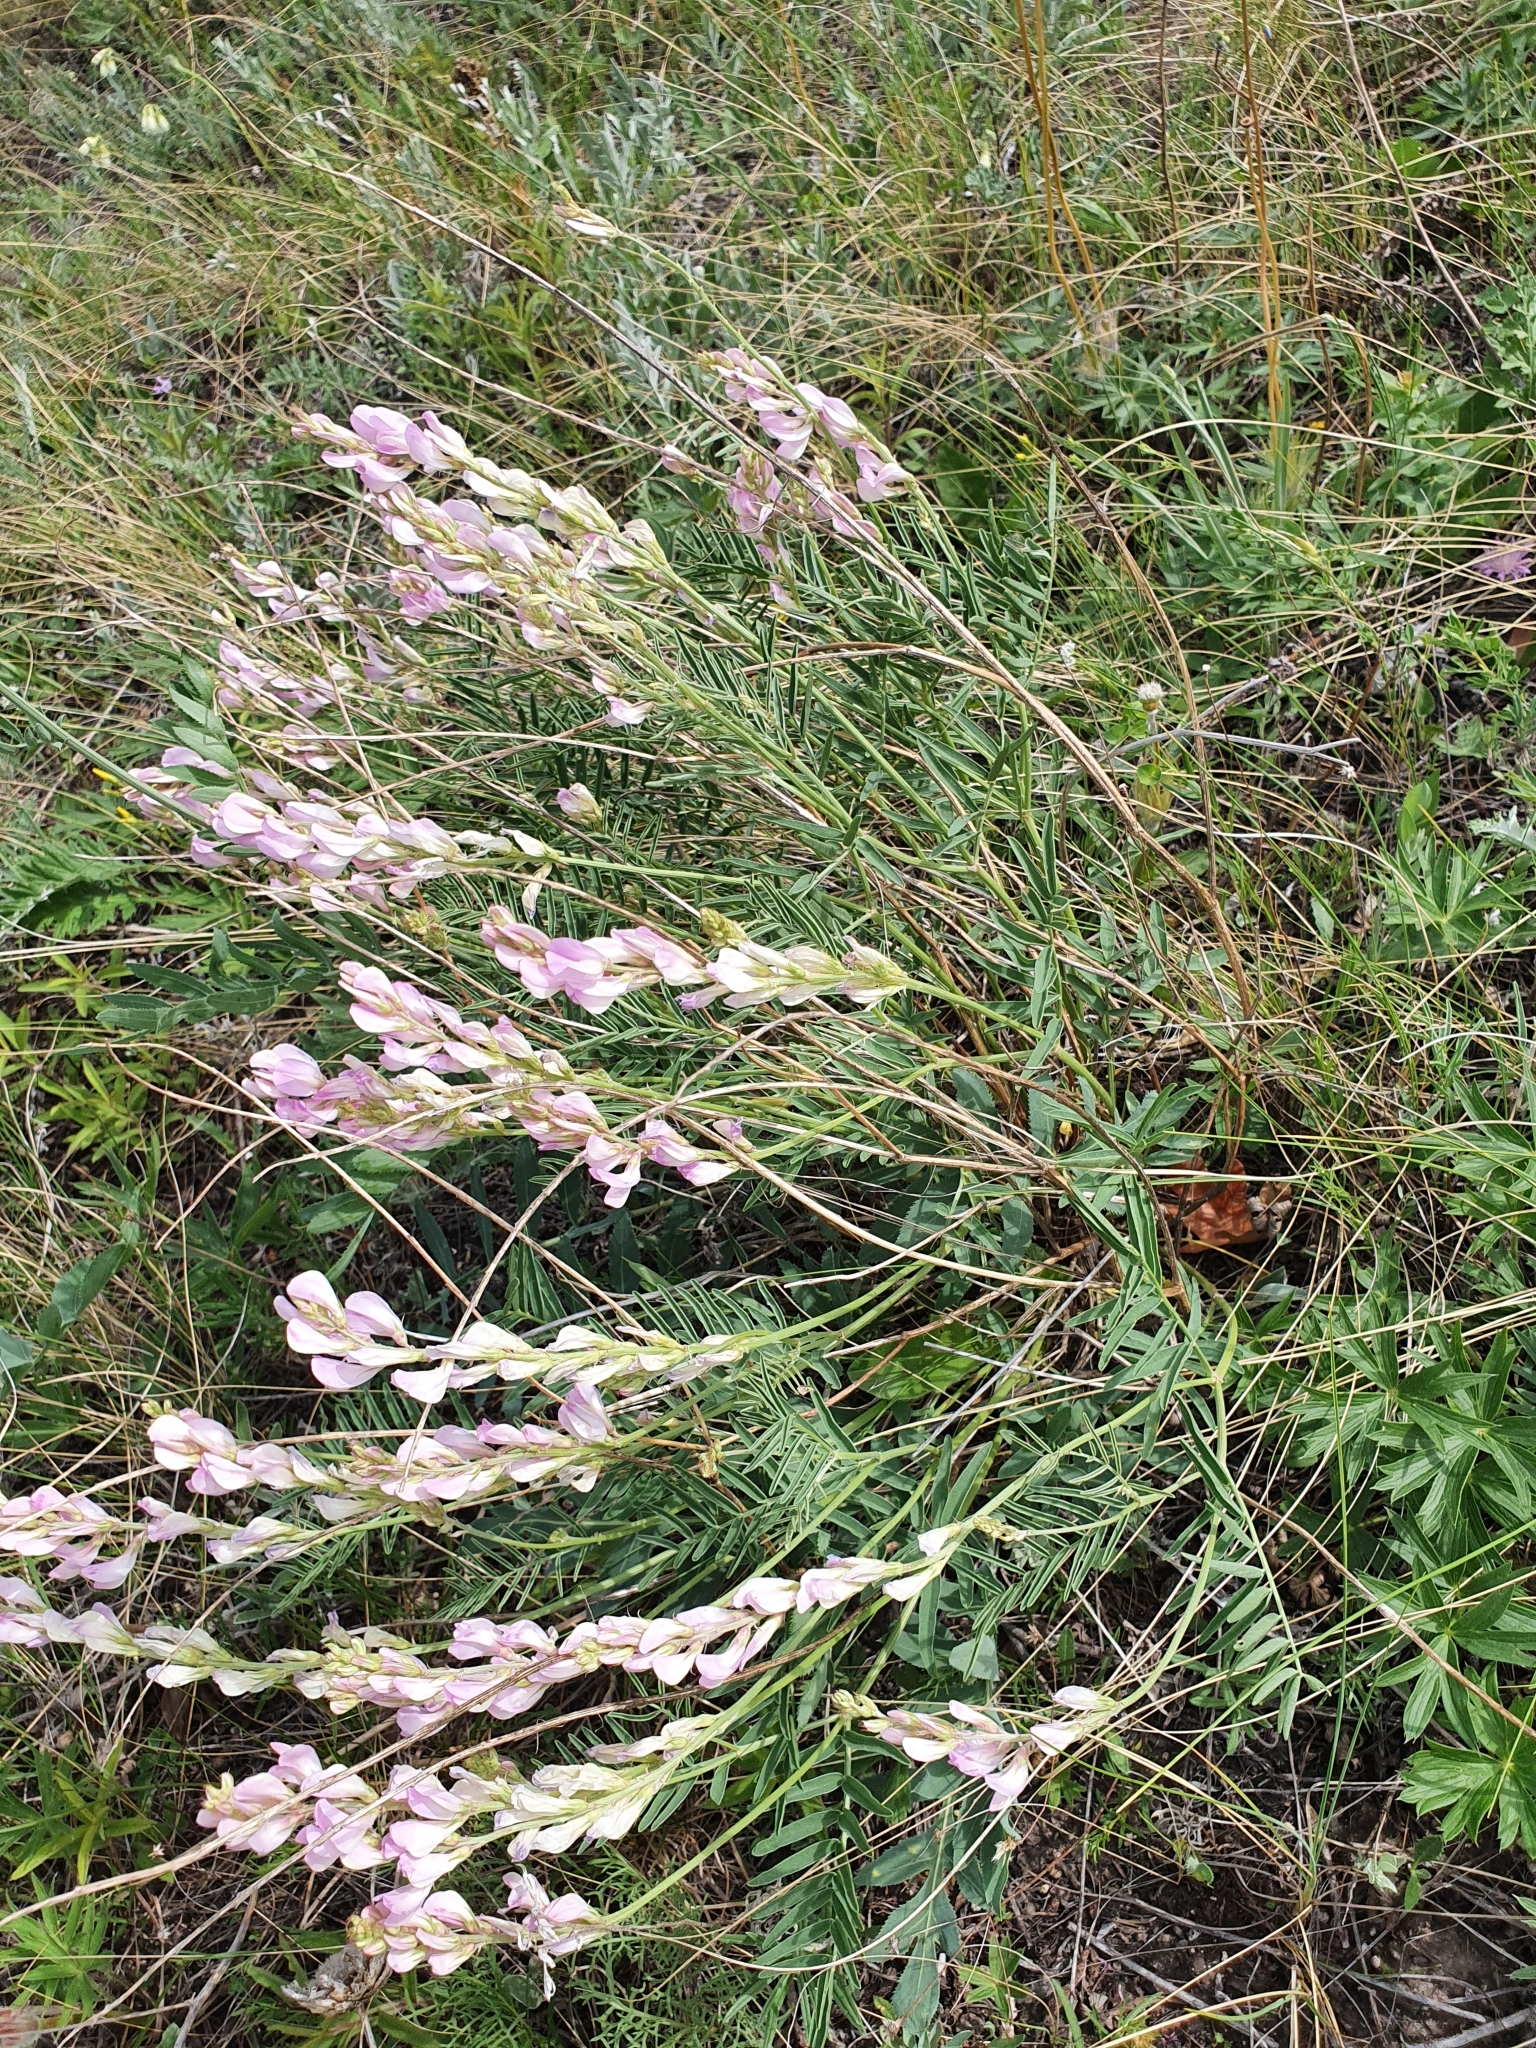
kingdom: Plantae
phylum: Tracheophyta
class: Magnoliopsida
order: Fabales
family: Fabaceae
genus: Hedysarum
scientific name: Hedysarum razoumovianum
